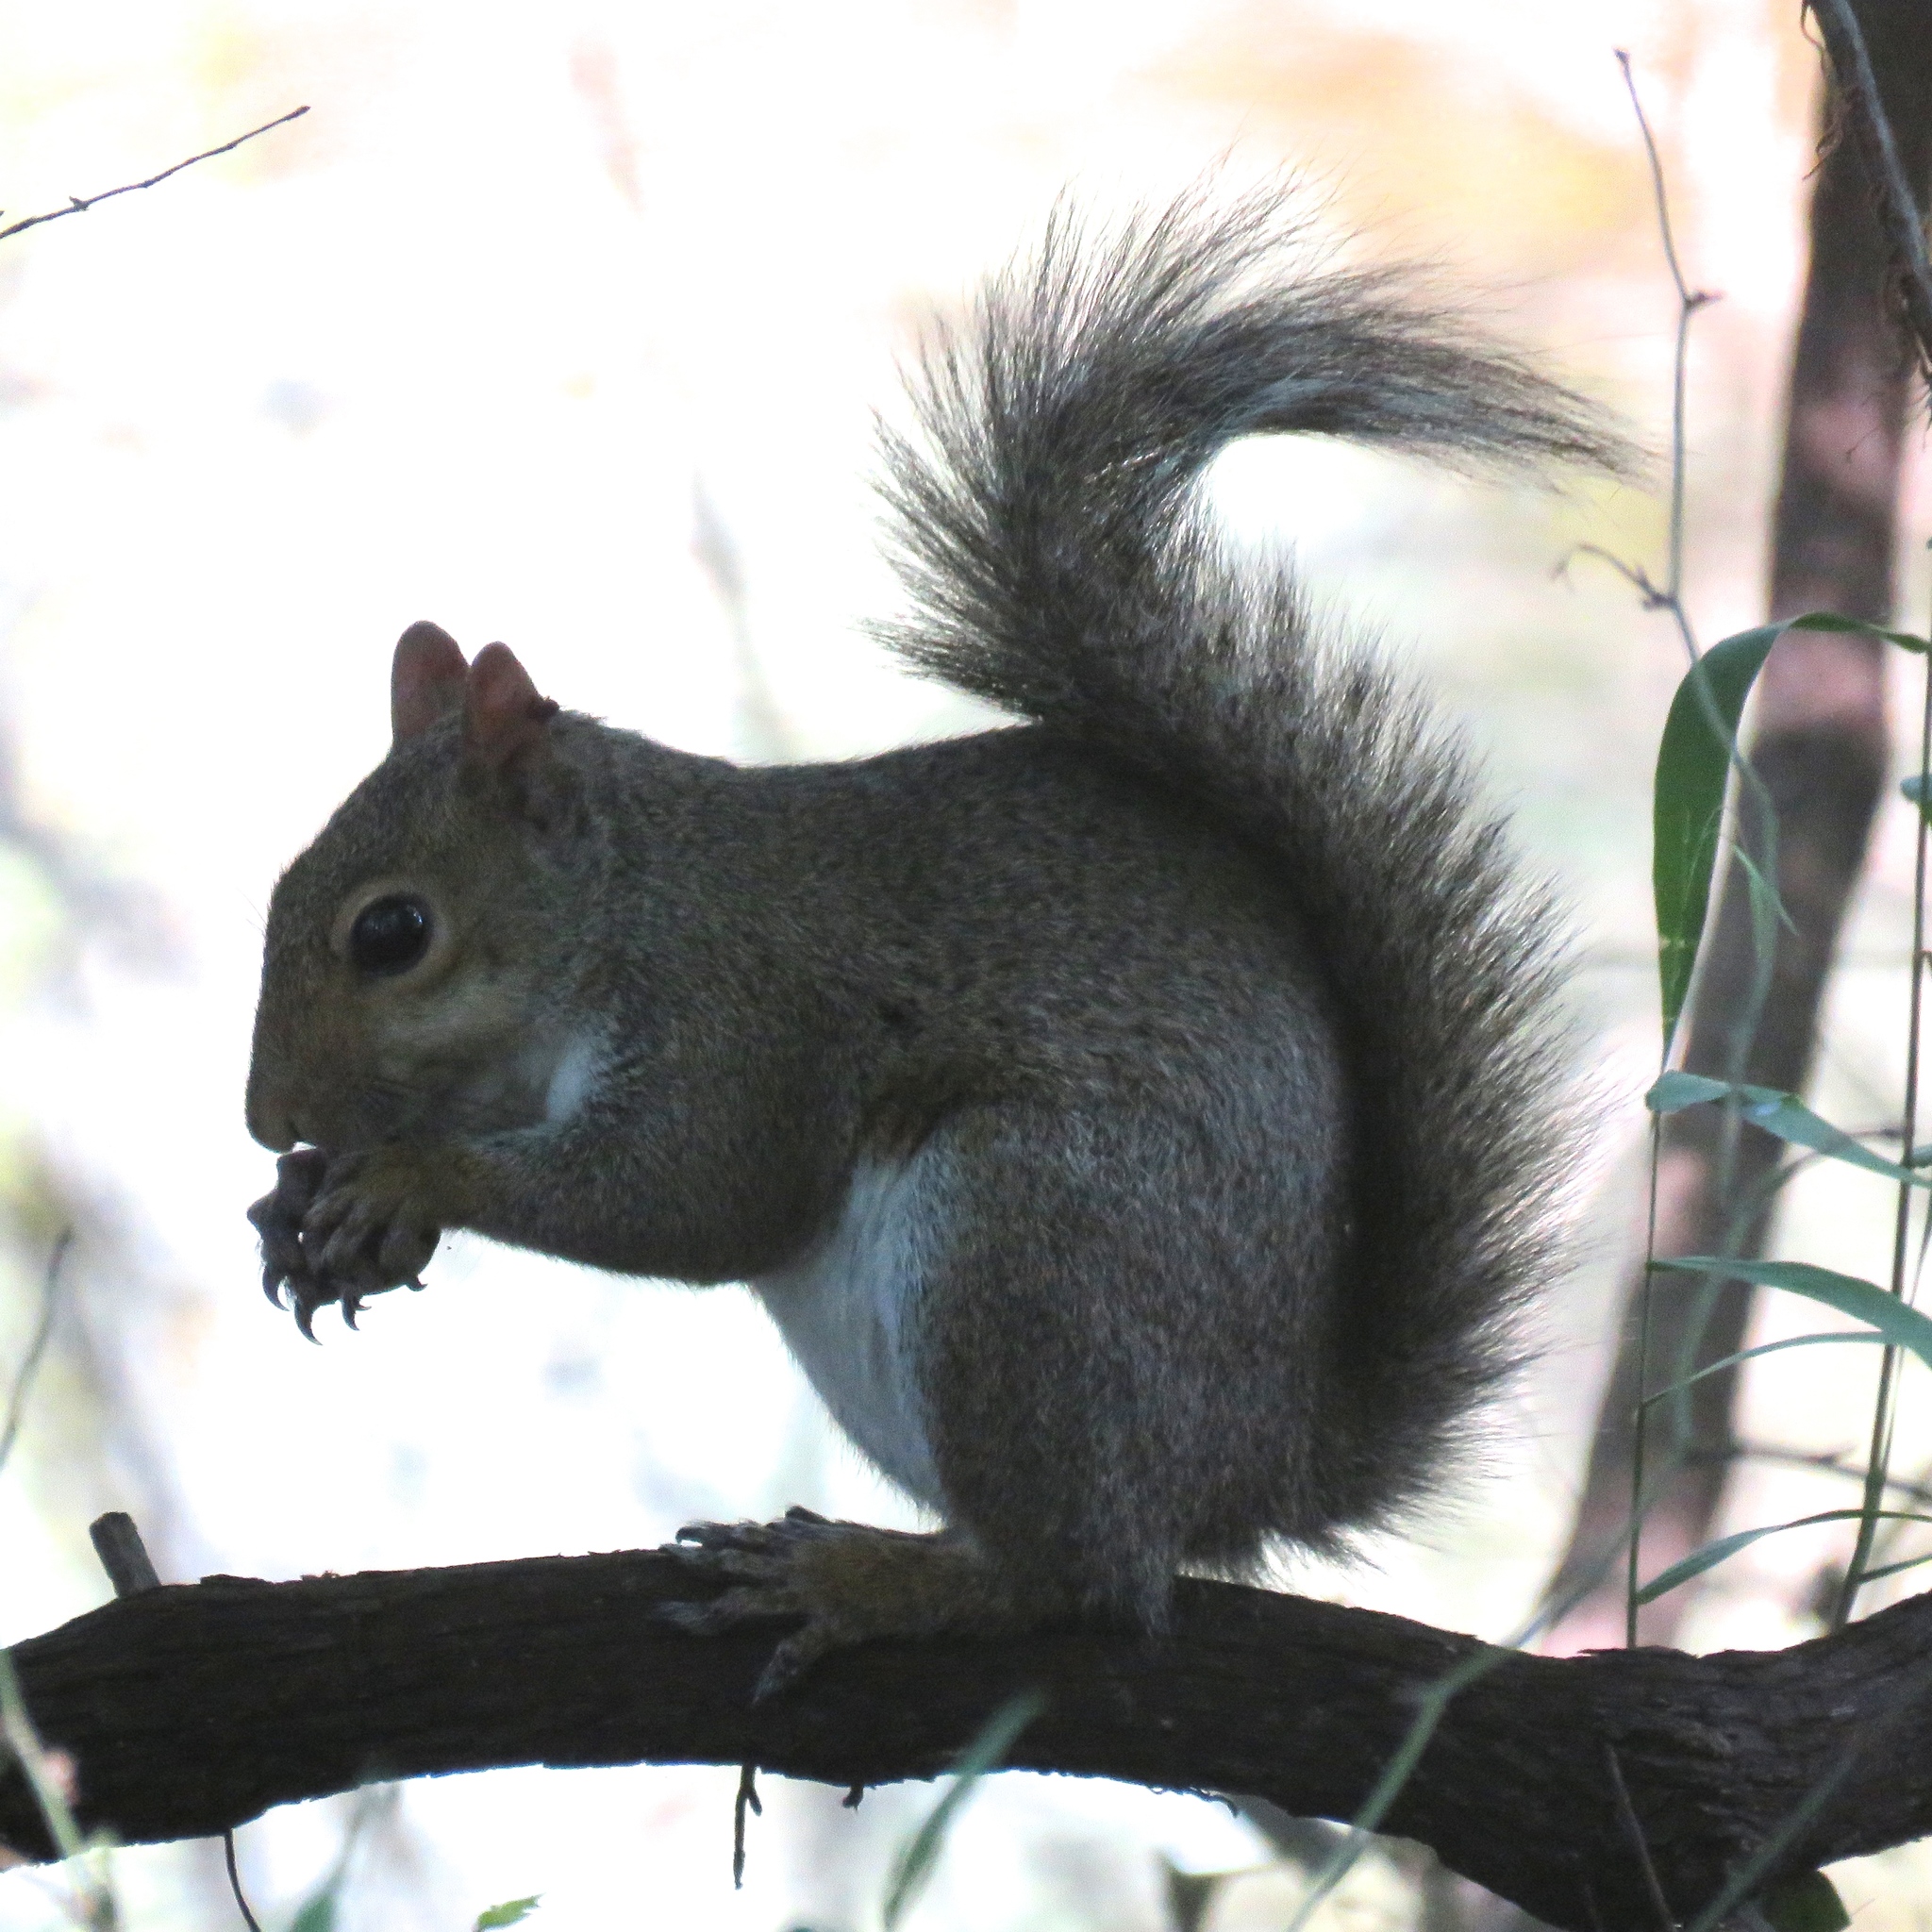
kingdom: Animalia
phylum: Chordata
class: Mammalia
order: Rodentia
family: Sciuridae
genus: Sciurus
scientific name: Sciurus carolinensis
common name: Eastern gray squirrel
